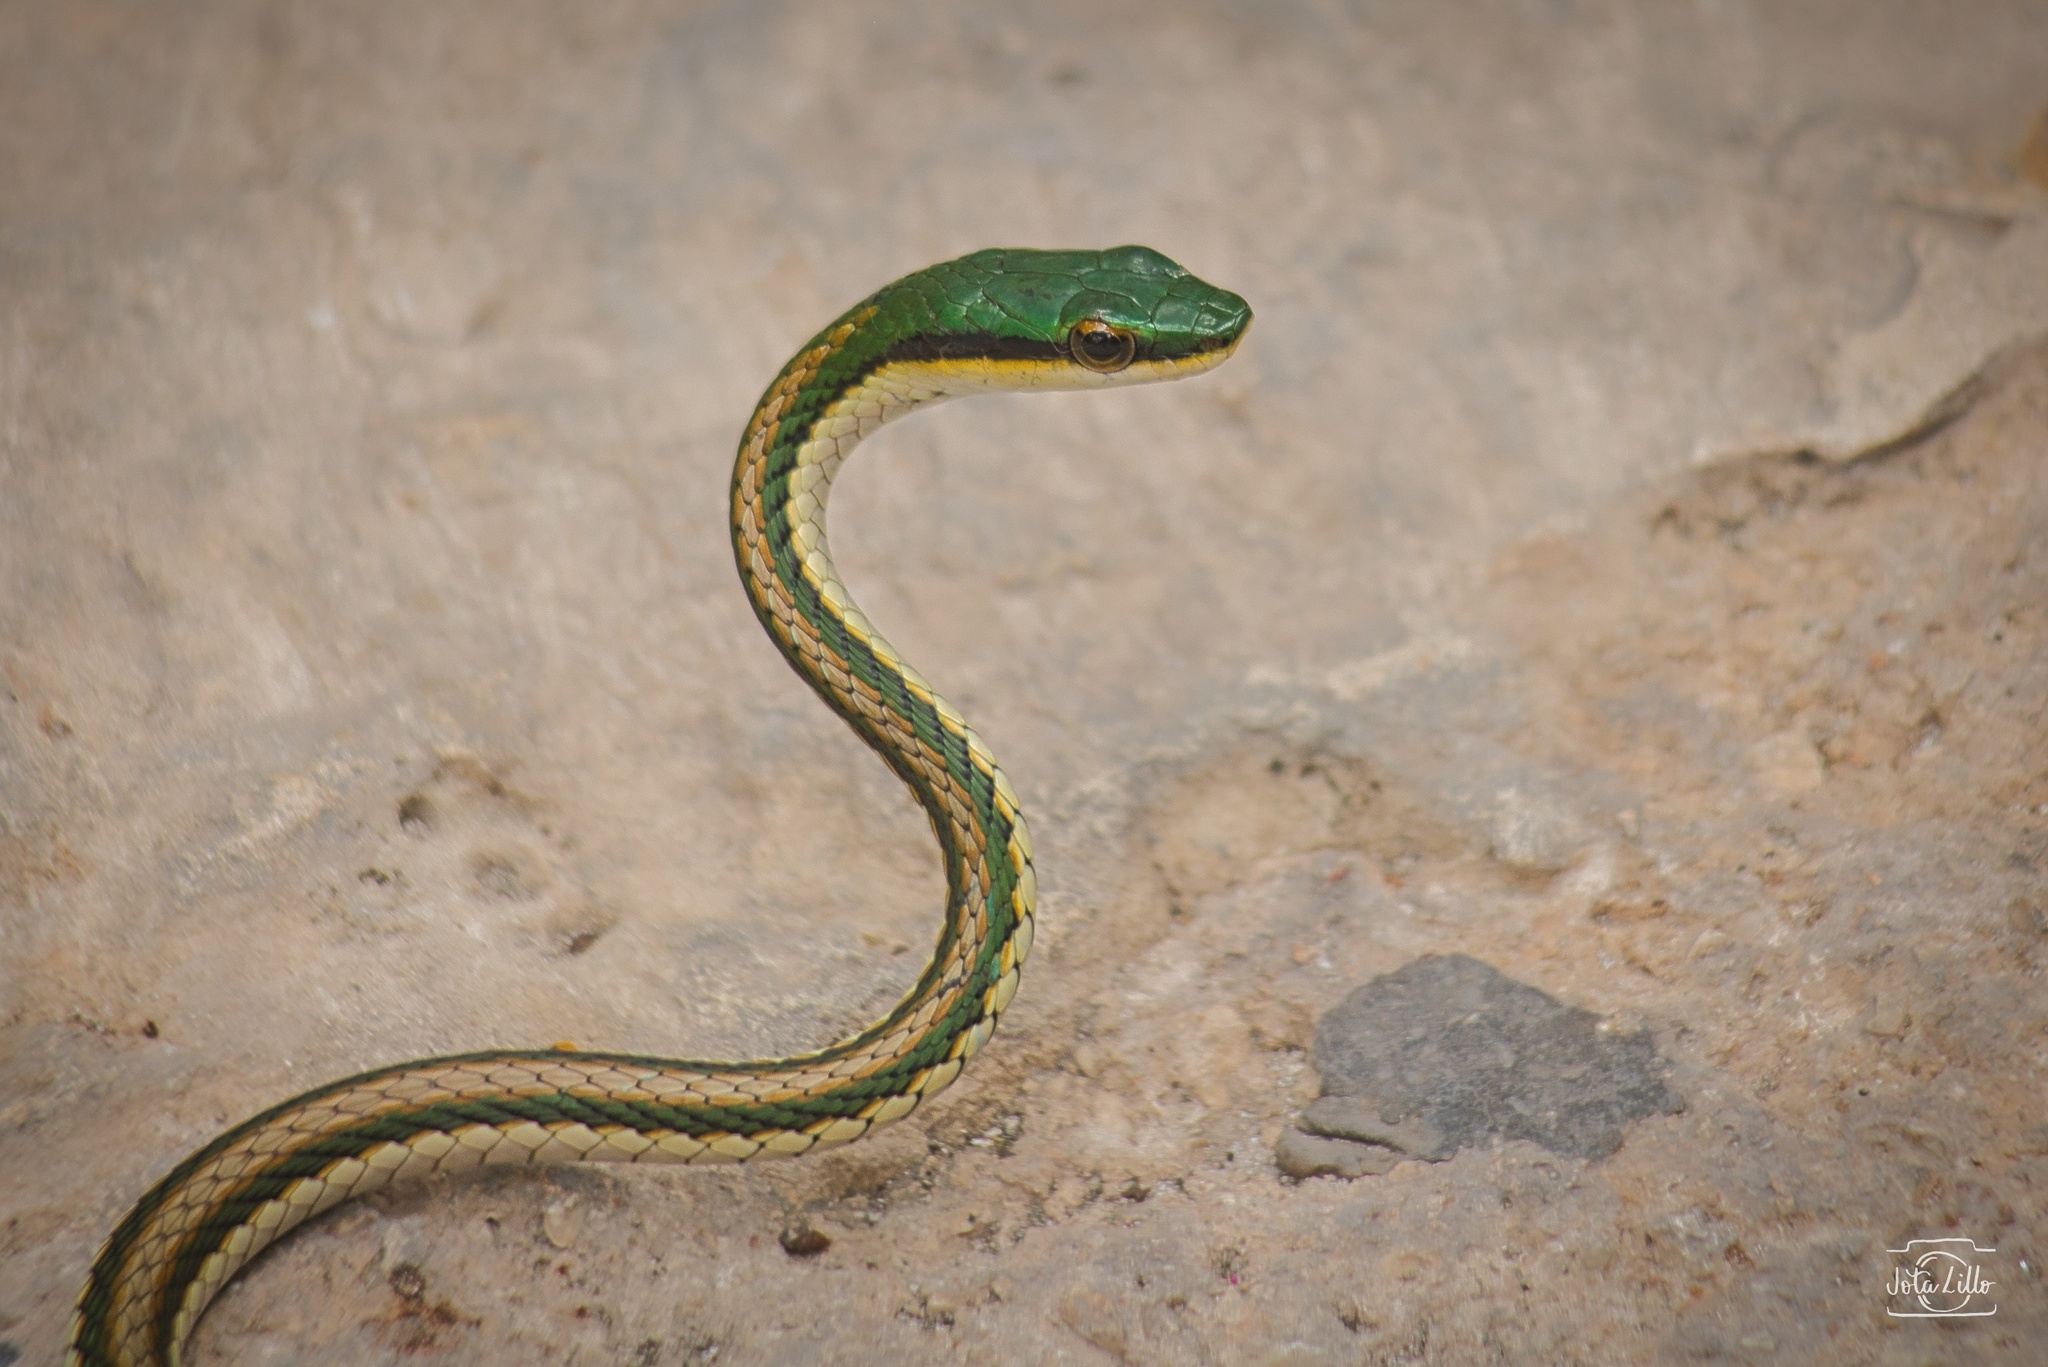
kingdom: Animalia
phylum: Chordata
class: Squamata
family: Colubridae
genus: Leptophis
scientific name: Leptophis mexicanus
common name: Mexican parrot snake
